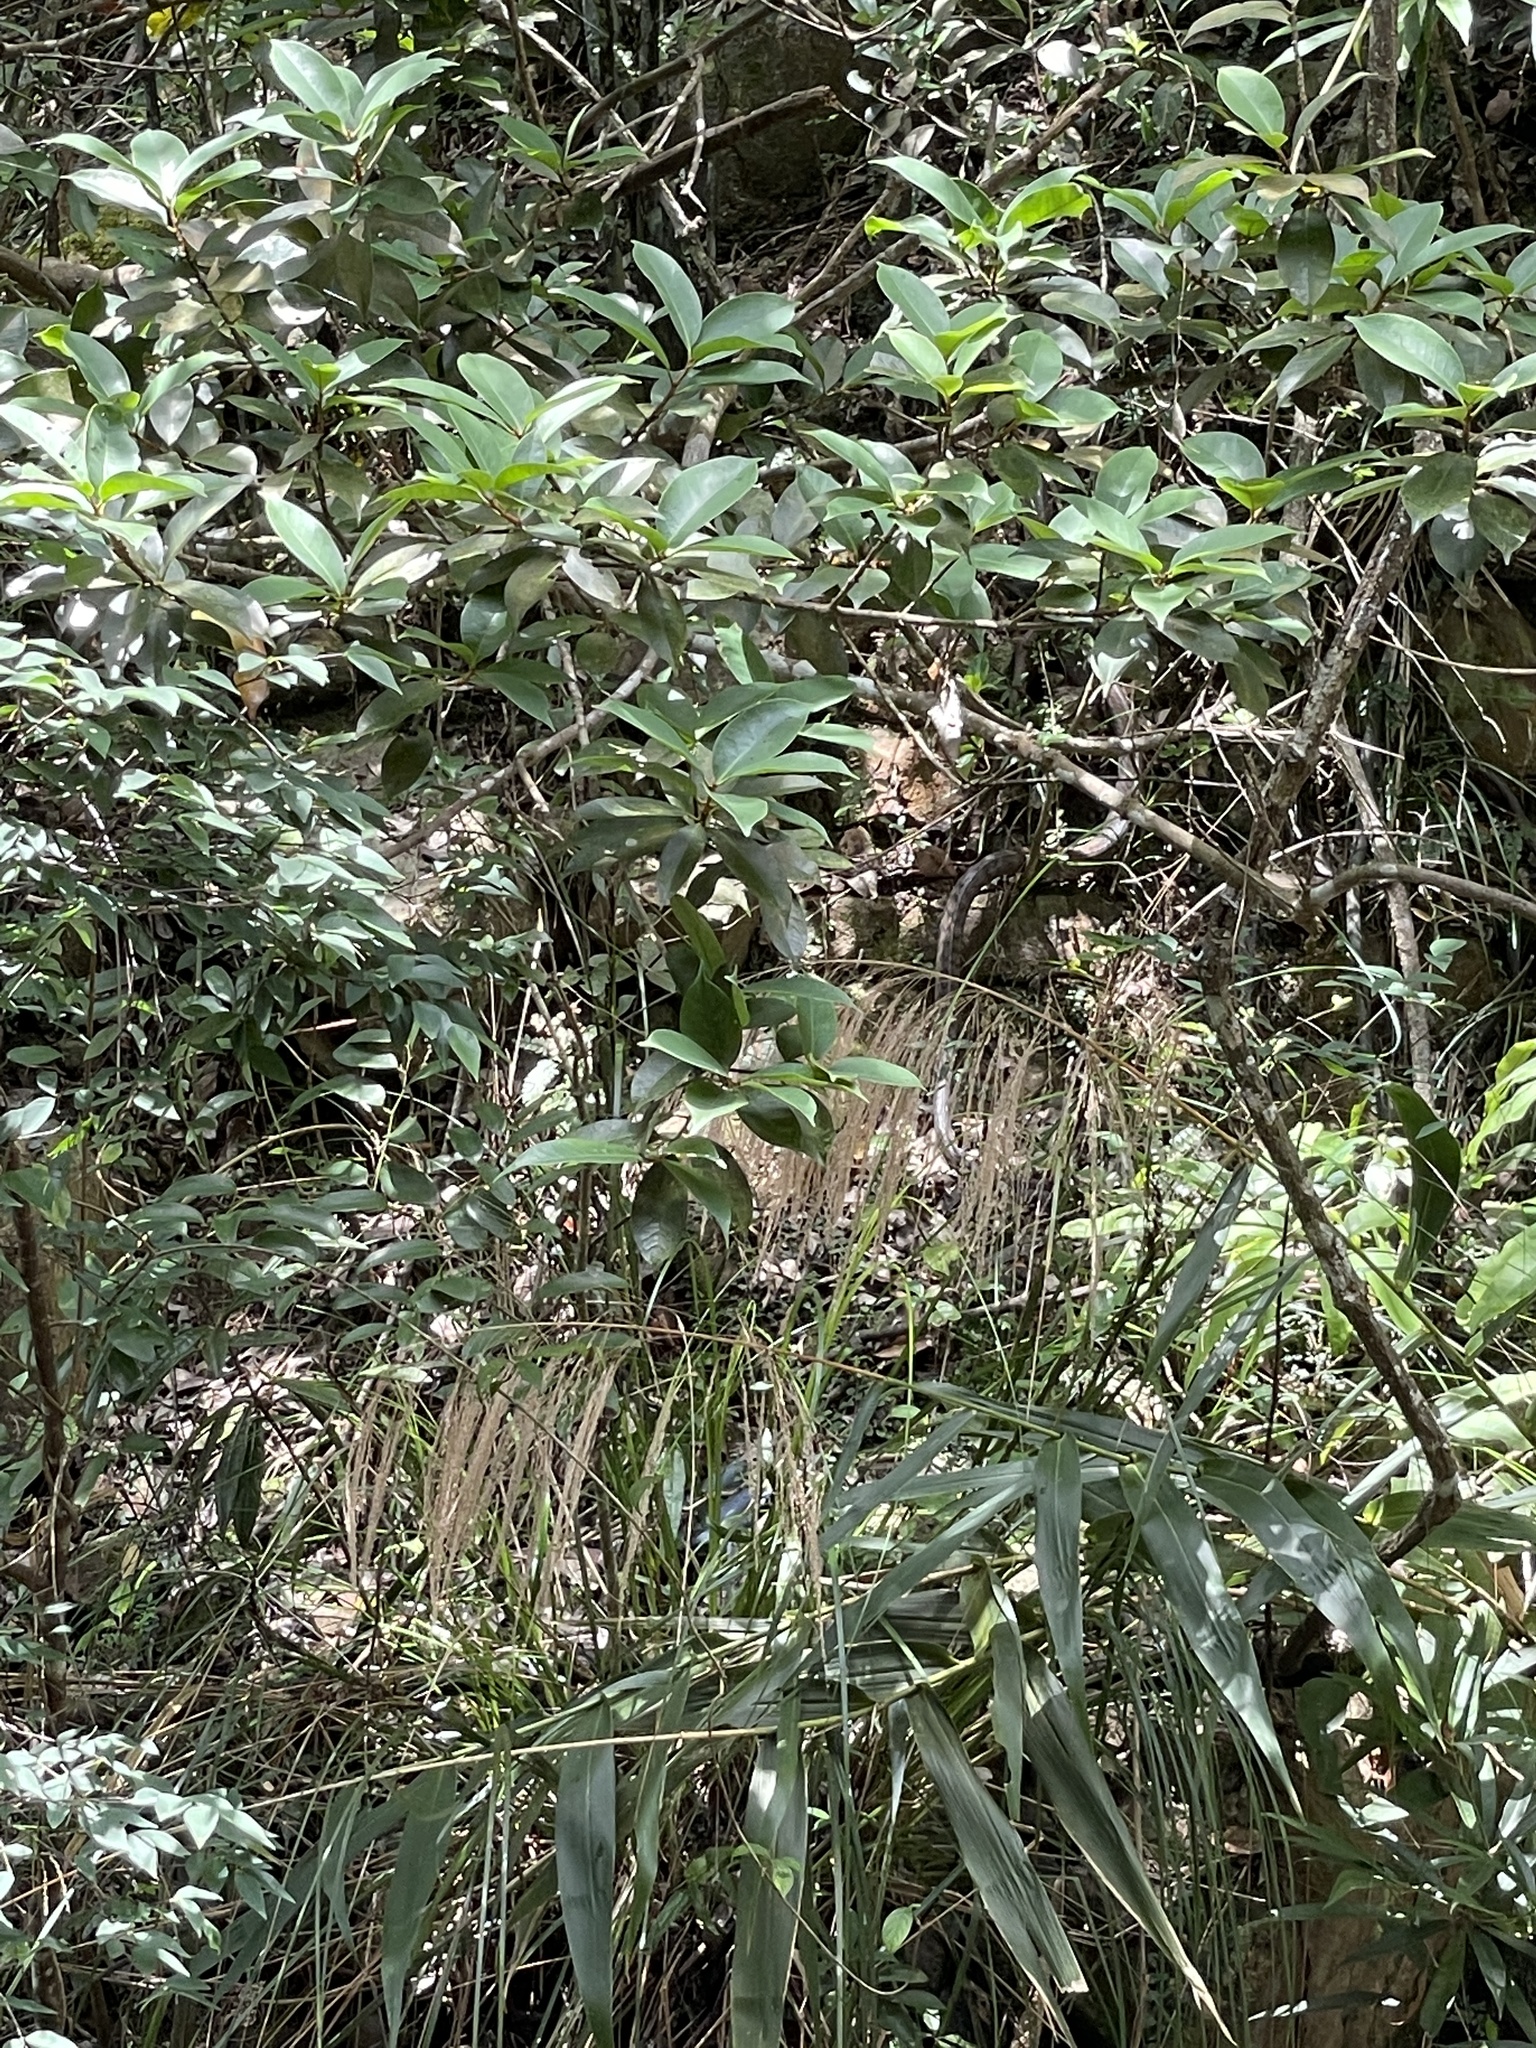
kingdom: Animalia
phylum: Chordata
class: Squamata
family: Colubridae
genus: Ptyas
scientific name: Ptyas mucosa
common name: Oriental ratsnake
